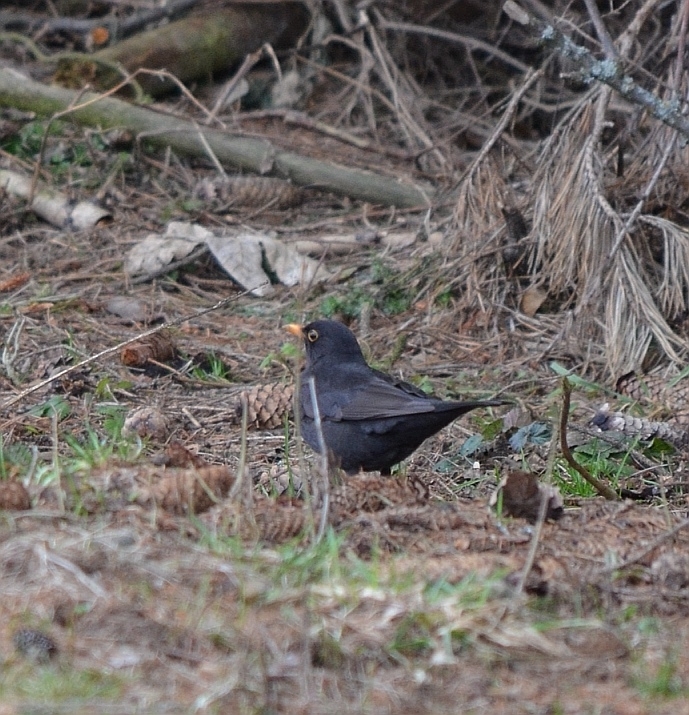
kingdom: Animalia
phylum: Chordata
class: Aves
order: Passeriformes
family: Turdidae
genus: Turdus
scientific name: Turdus merula
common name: Common blackbird
